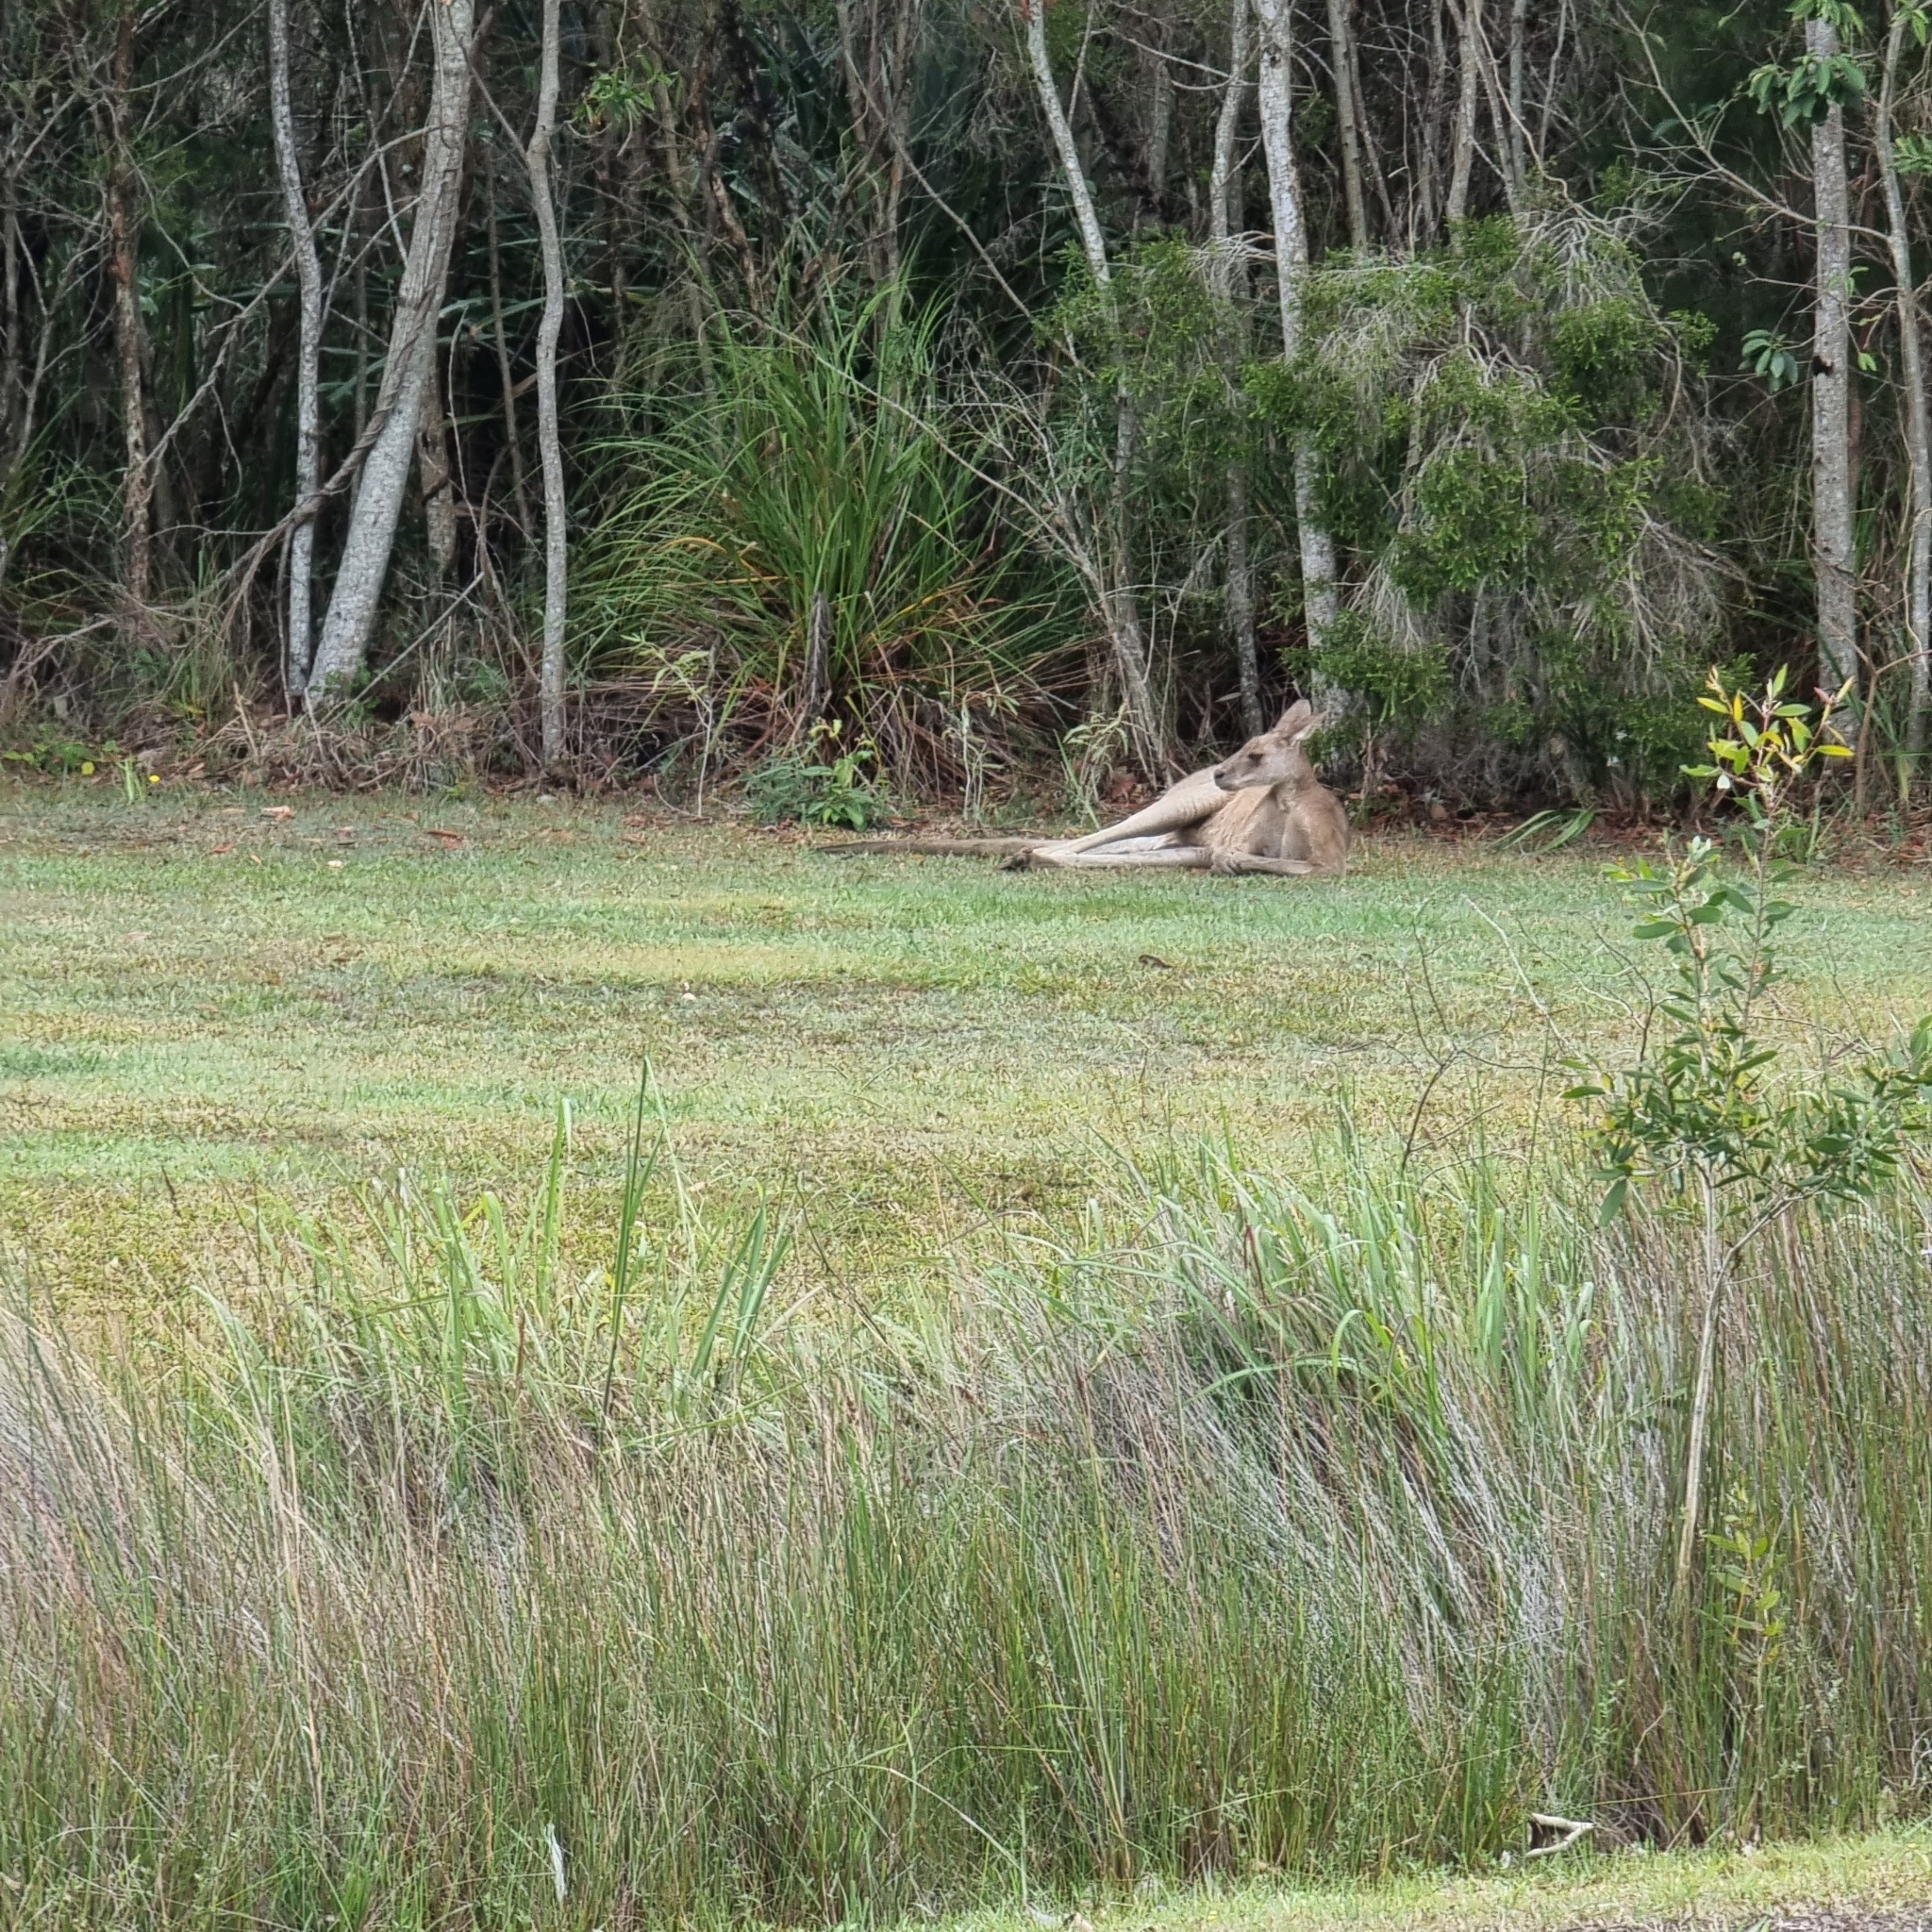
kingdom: Animalia
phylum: Chordata
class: Mammalia
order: Diprotodontia
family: Macropodidae
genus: Macropus
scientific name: Macropus giganteus
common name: Eastern grey kangaroo
